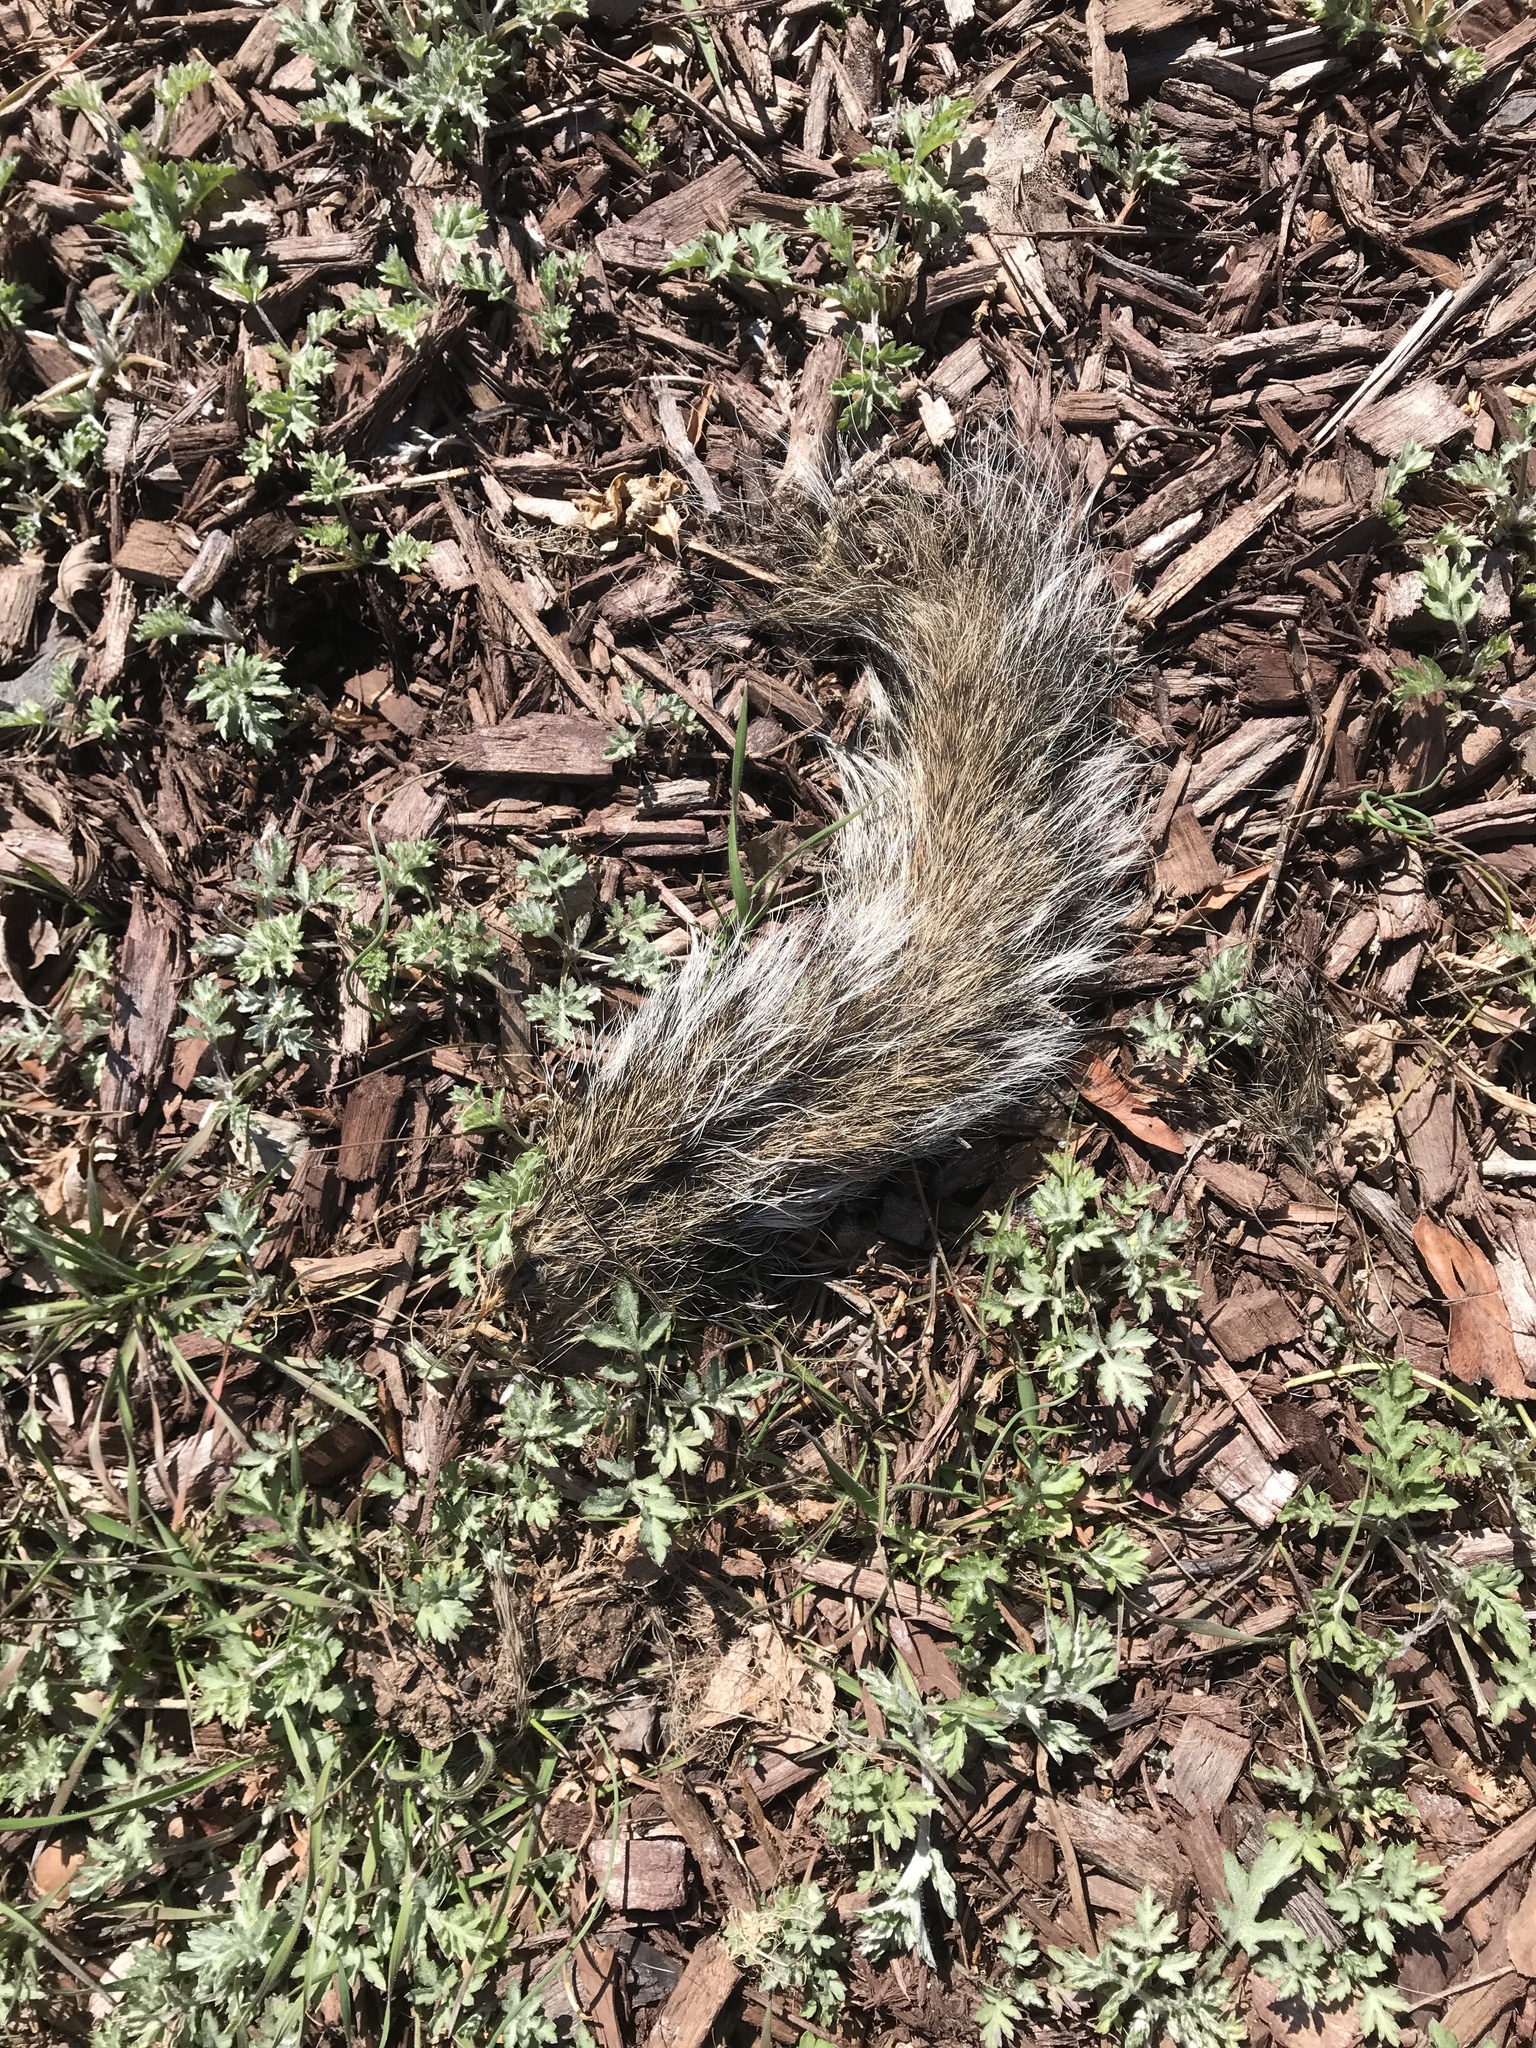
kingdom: Animalia
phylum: Chordata
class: Mammalia
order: Rodentia
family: Sciuridae
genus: Sciurus
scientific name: Sciurus carolinensis
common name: Eastern gray squirrel
